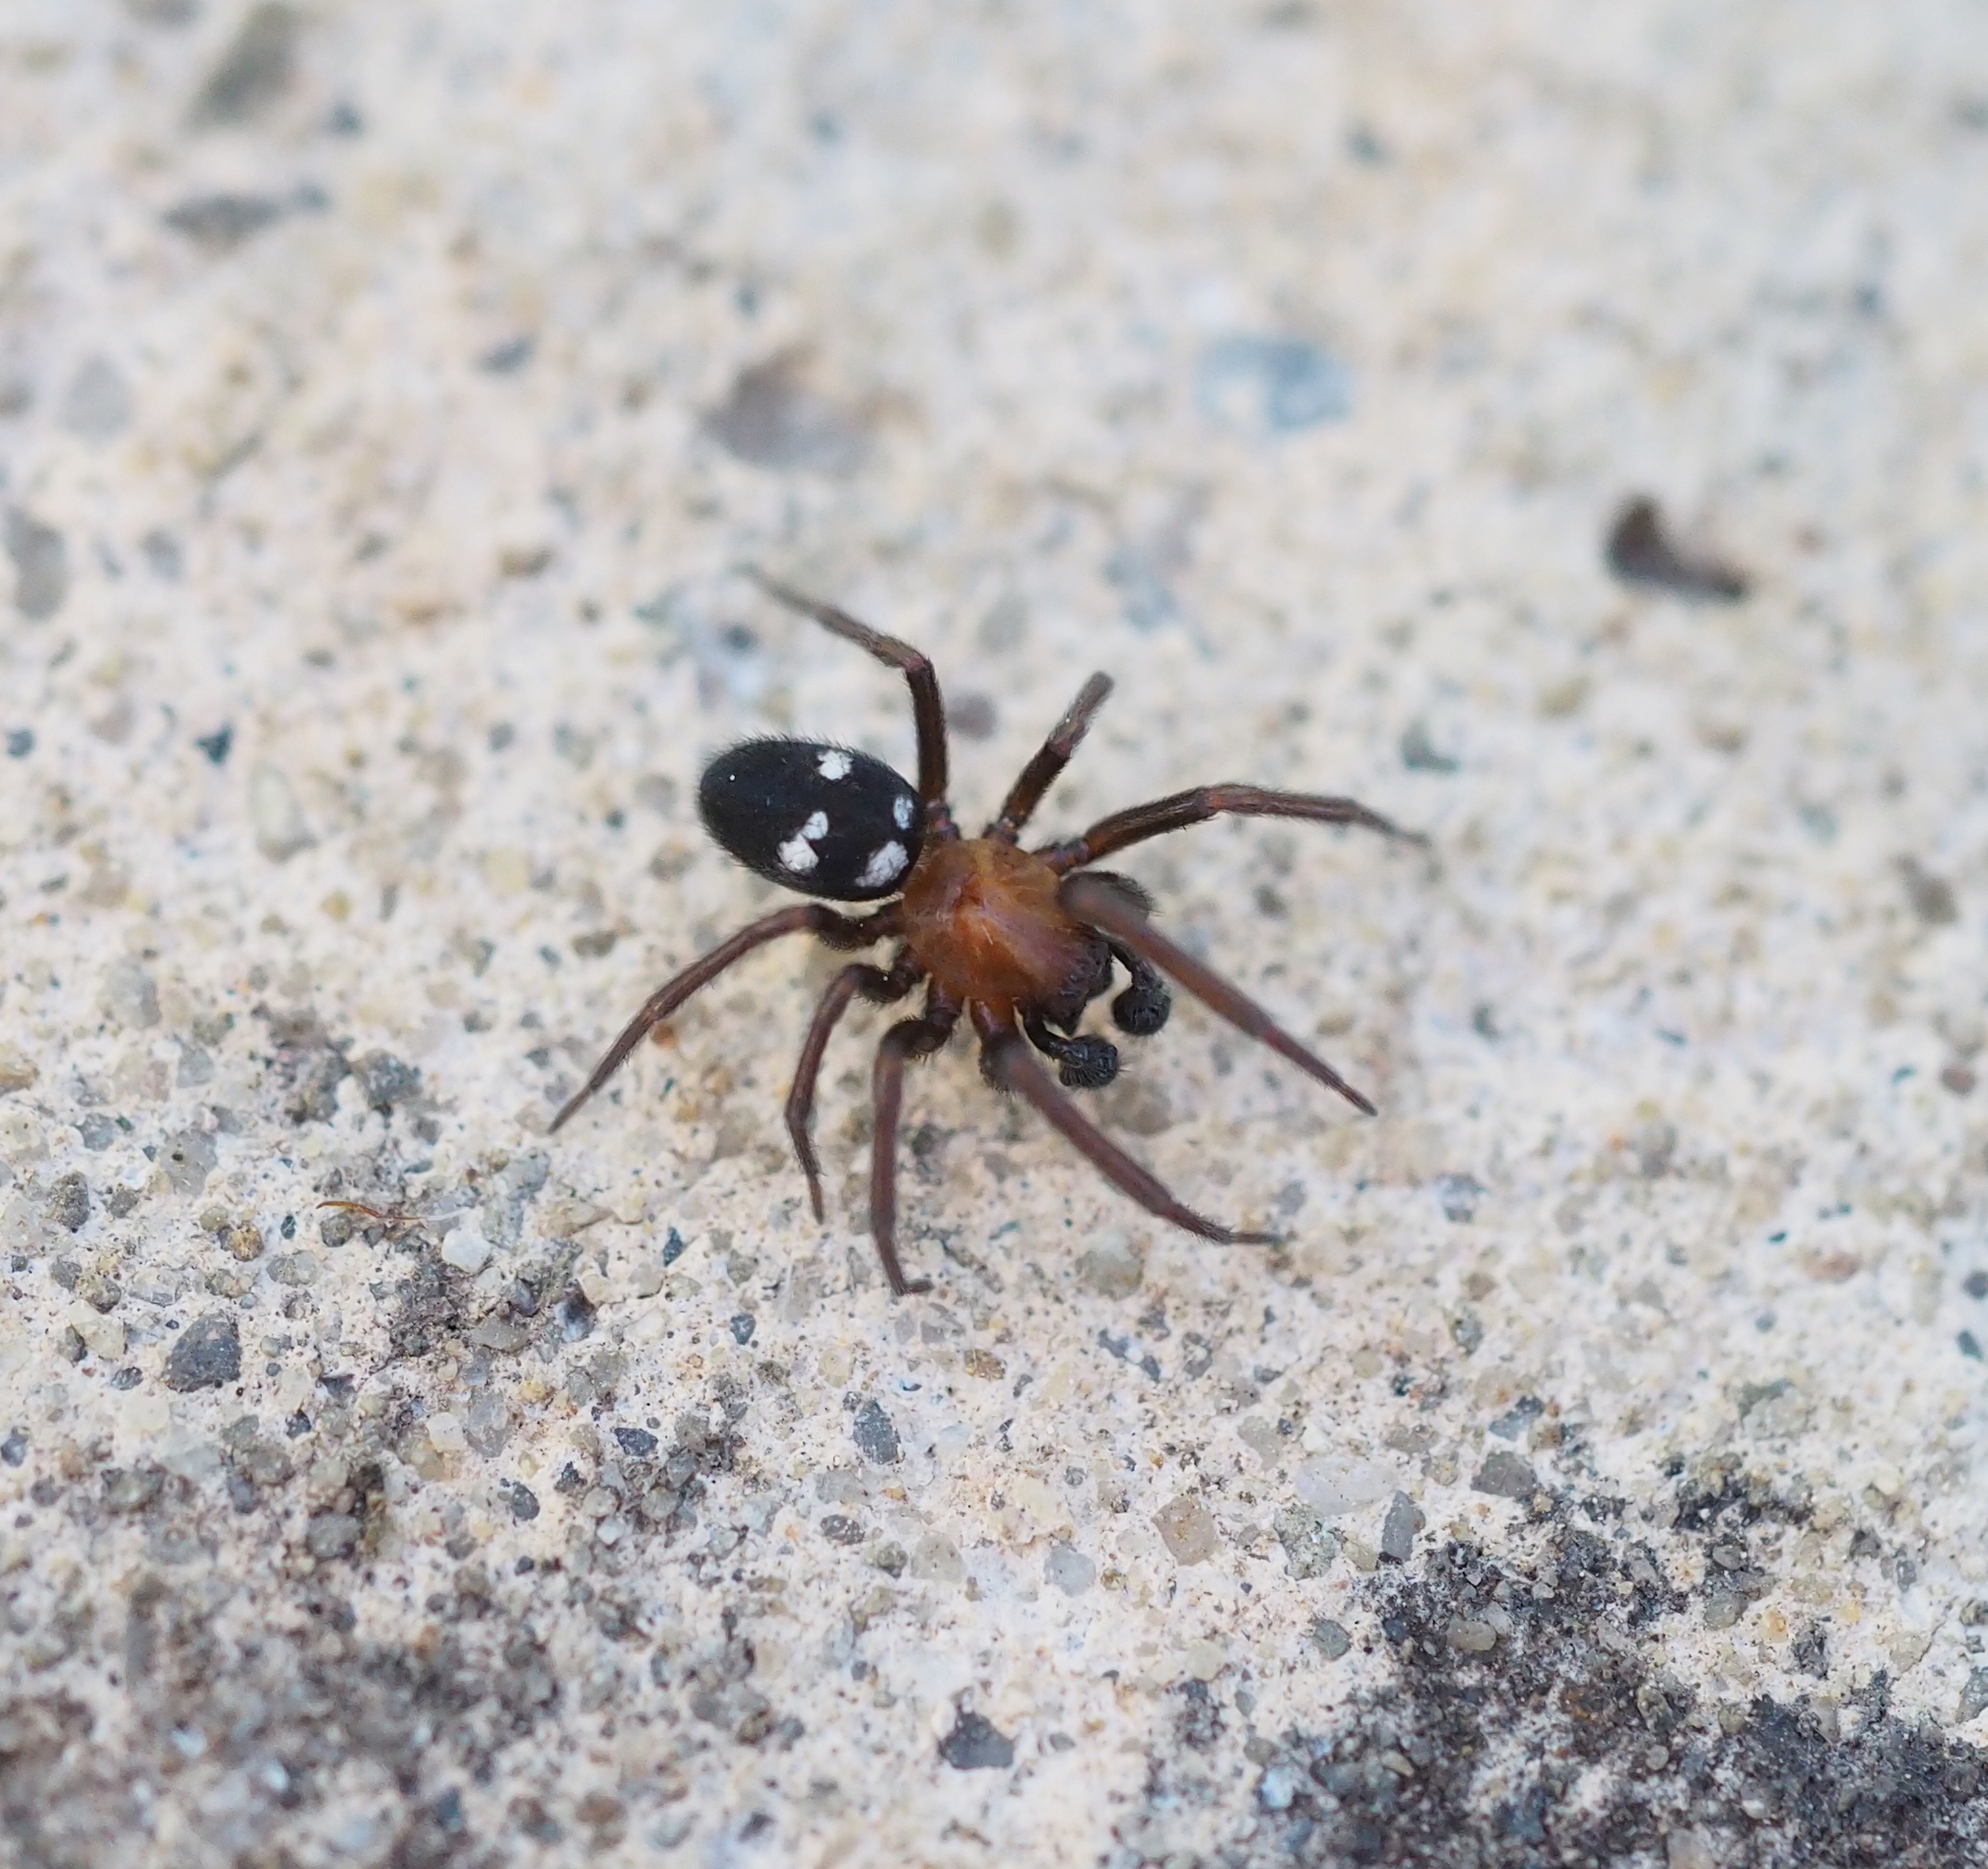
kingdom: Animalia
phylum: Arthropoda
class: Arachnida
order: Araneae
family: Titanoecidae
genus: Titanoeca
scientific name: Titanoeca quadriguttata
